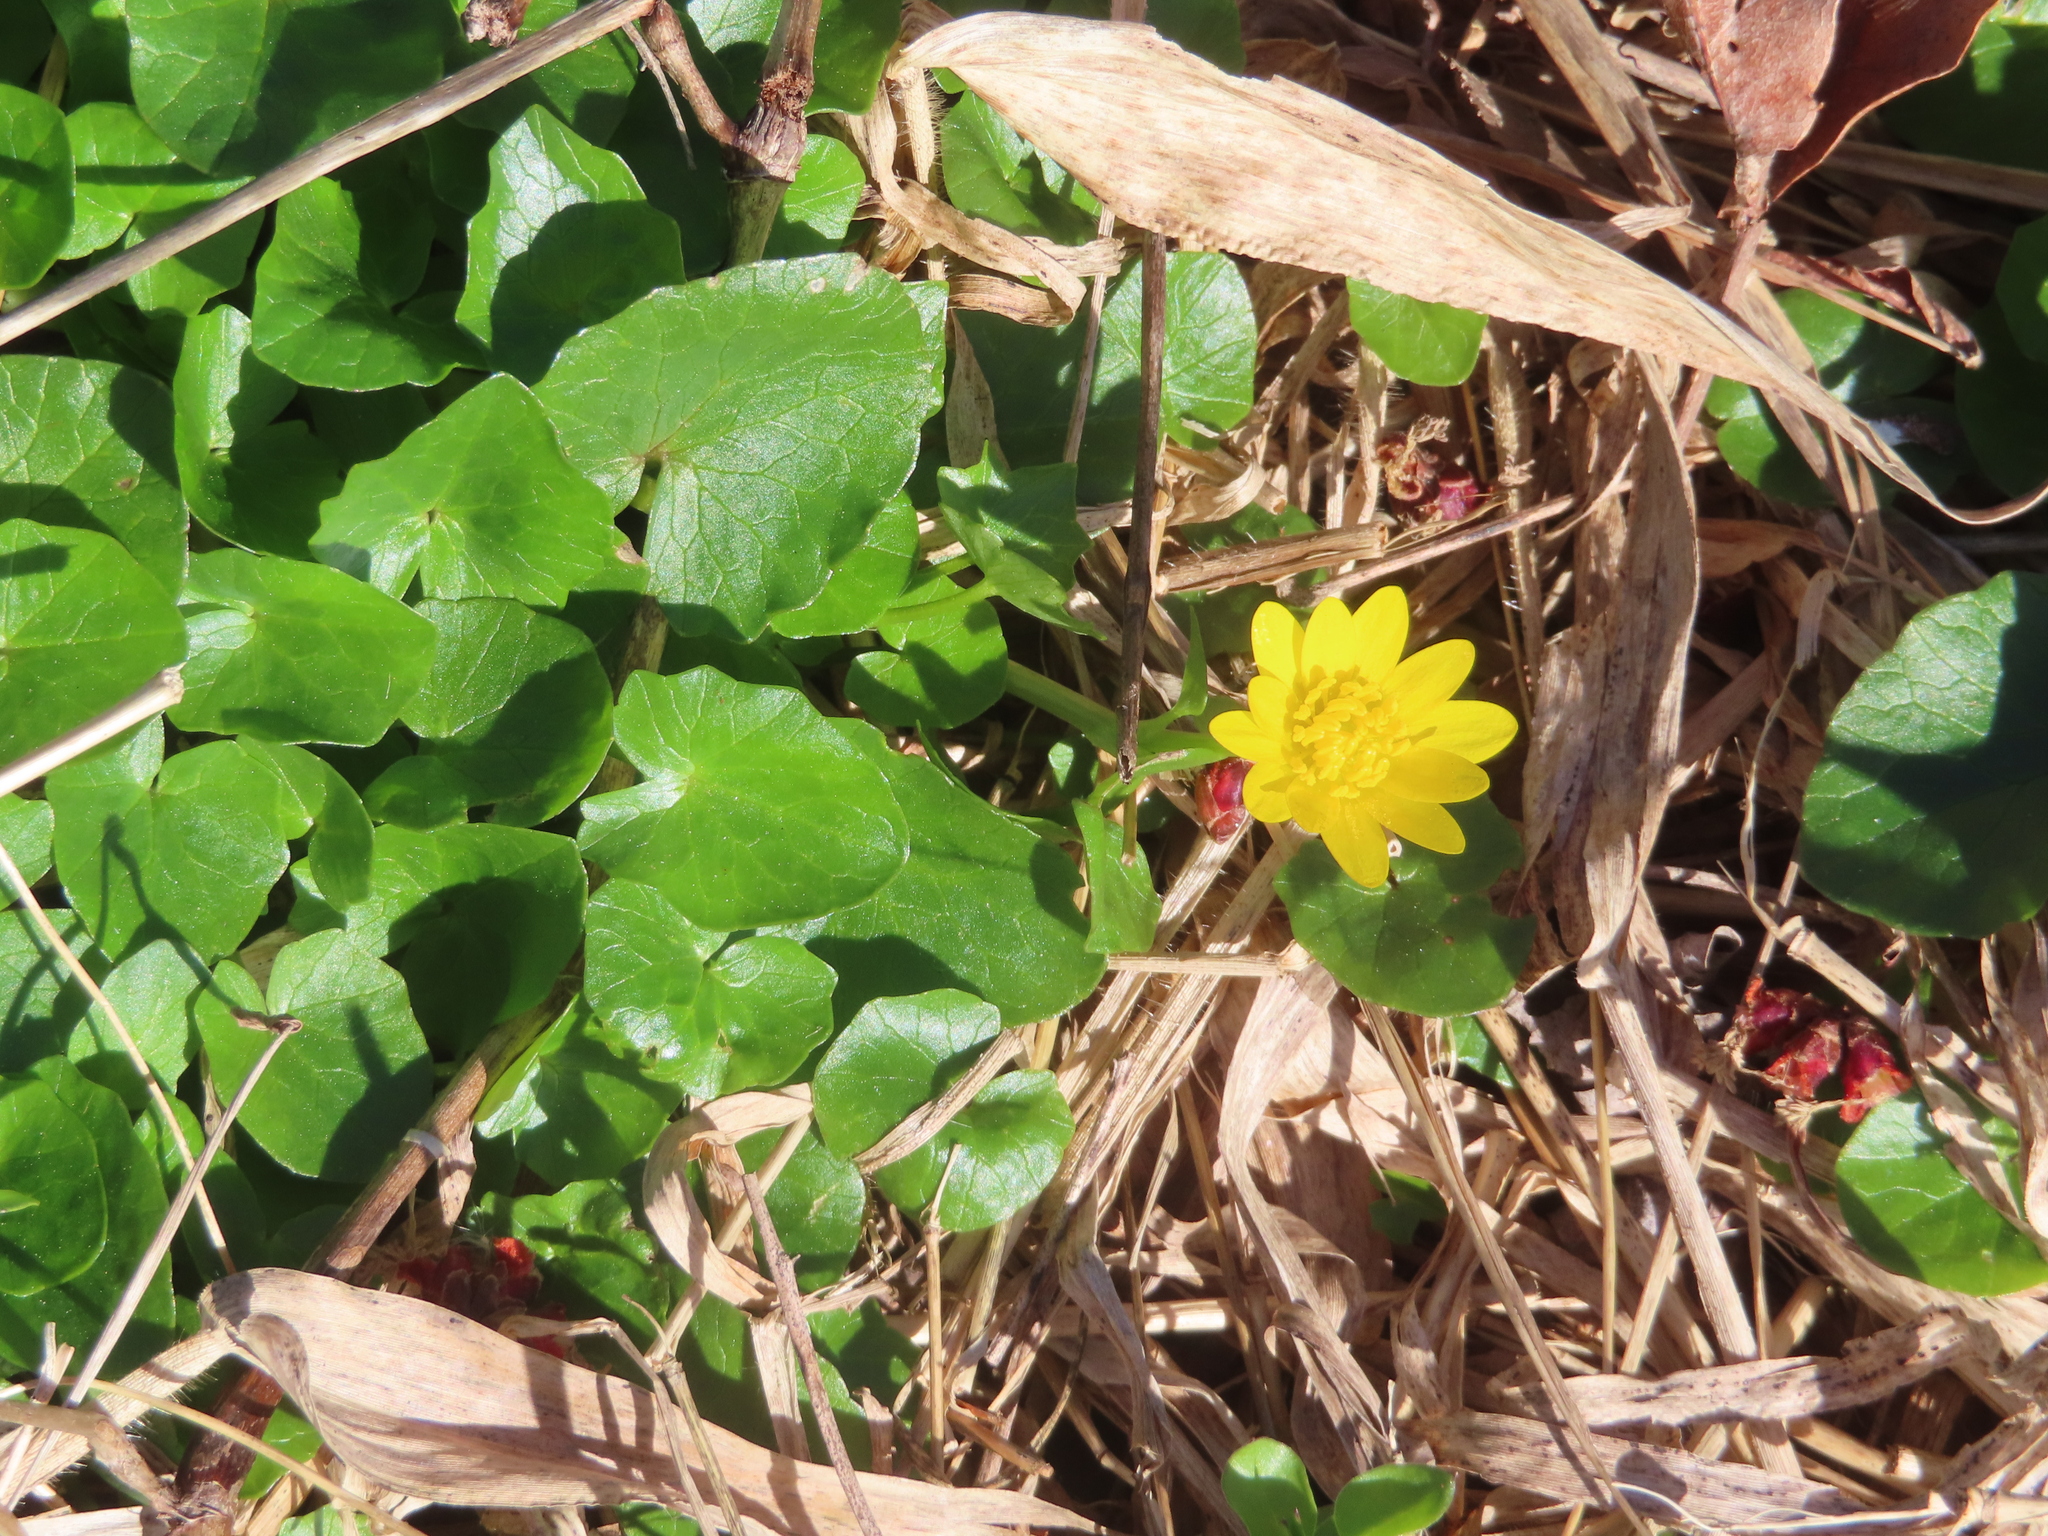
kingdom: Plantae
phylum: Tracheophyta
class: Magnoliopsida
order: Ranunculales
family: Ranunculaceae
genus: Ficaria
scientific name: Ficaria verna
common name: Lesser celandine
